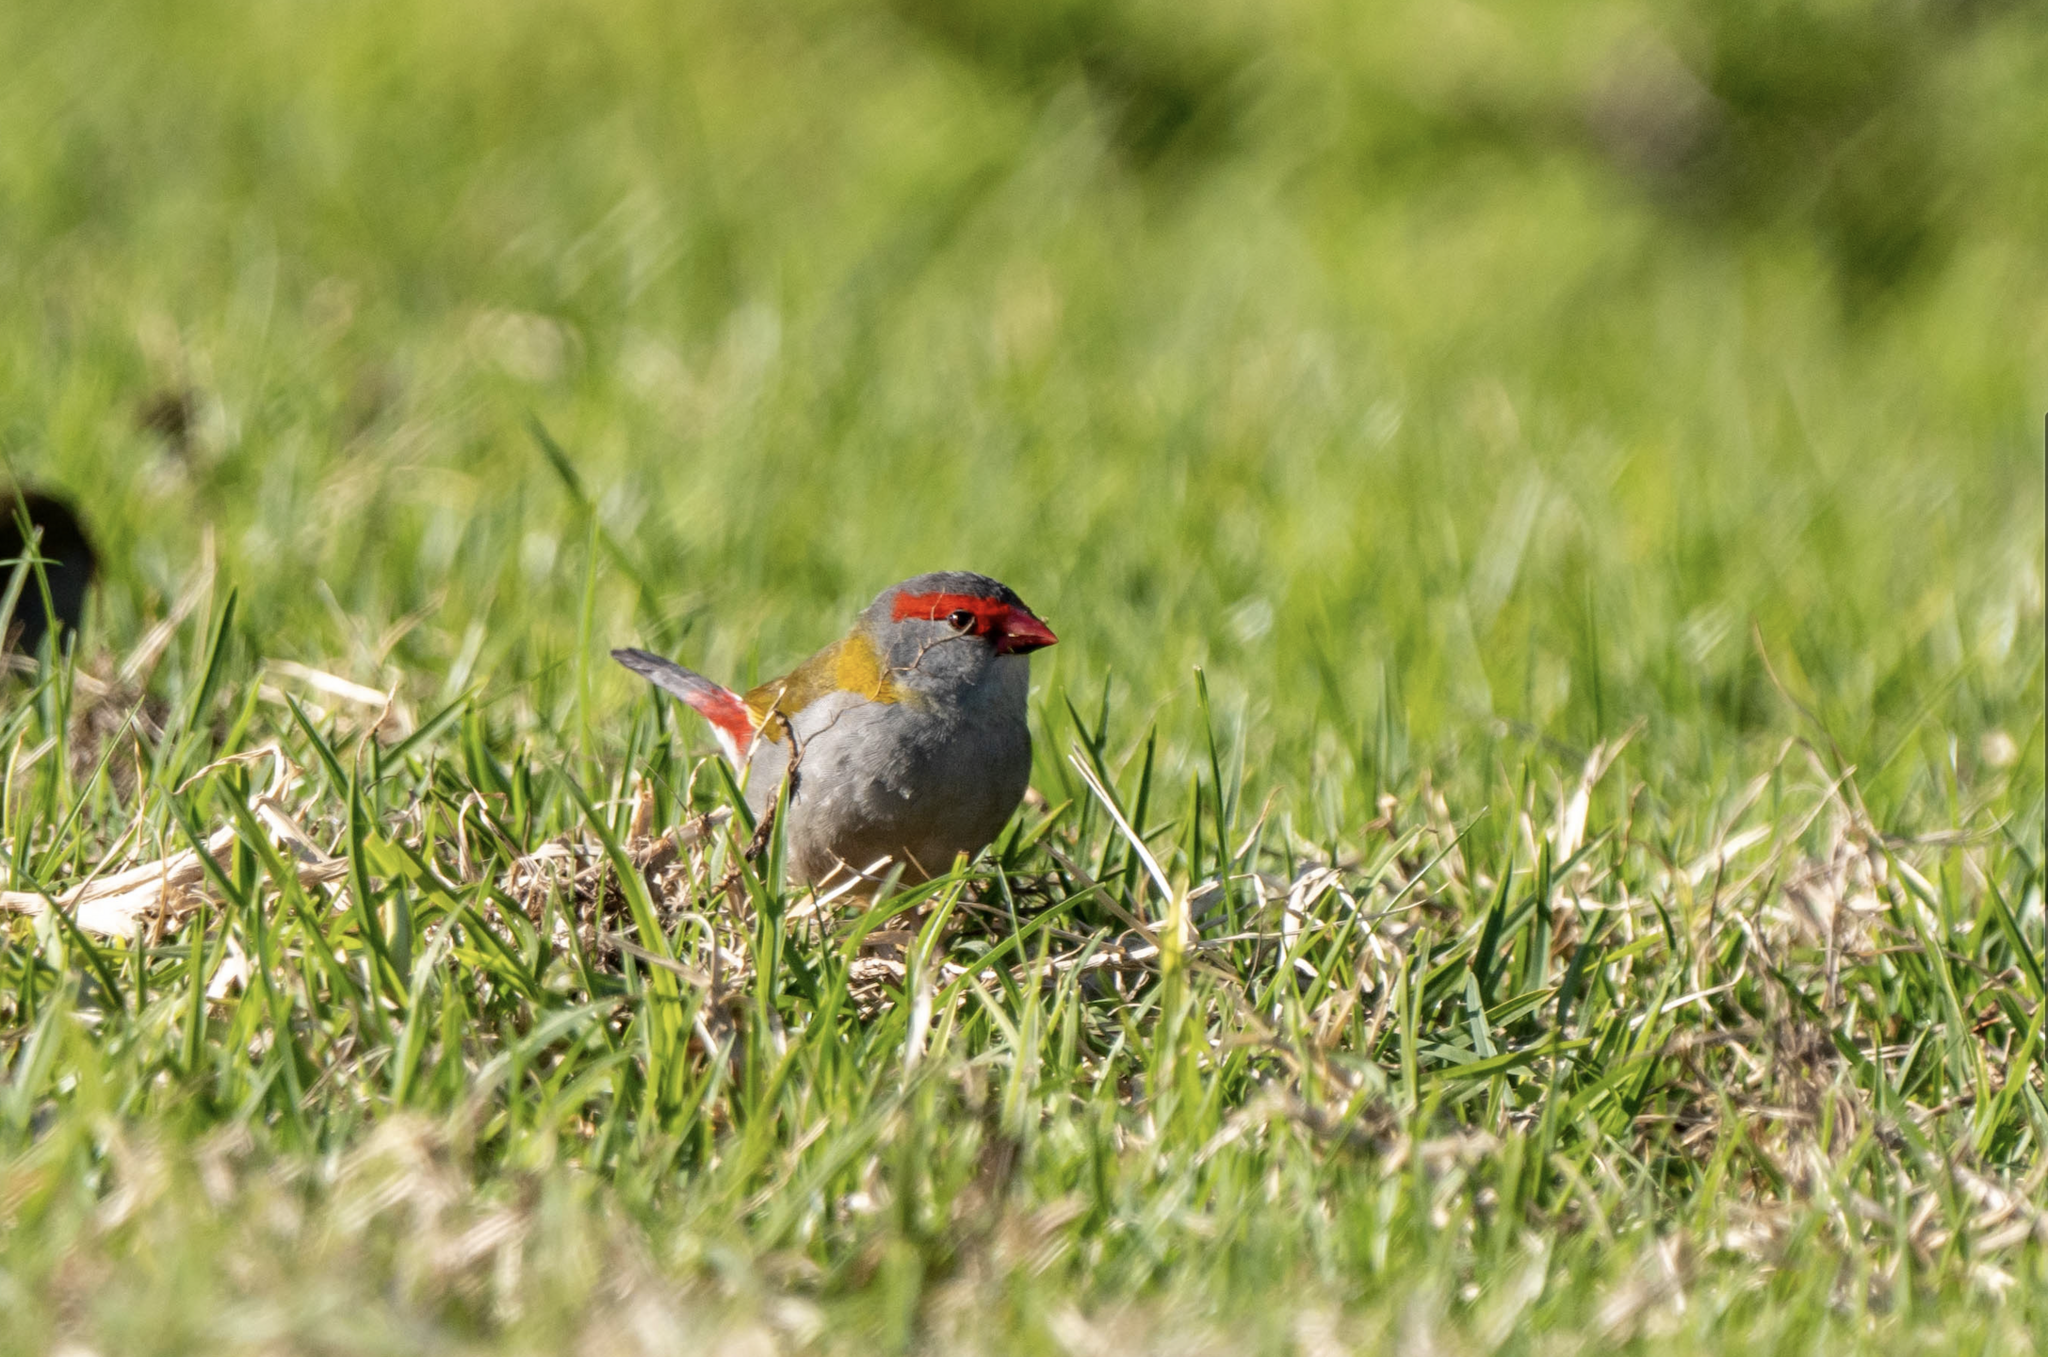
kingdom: Animalia
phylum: Chordata
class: Aves
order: Passeriformes
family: Estrildidae
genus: Neochmia
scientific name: Neochmia temporalis
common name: Red-browed finch
